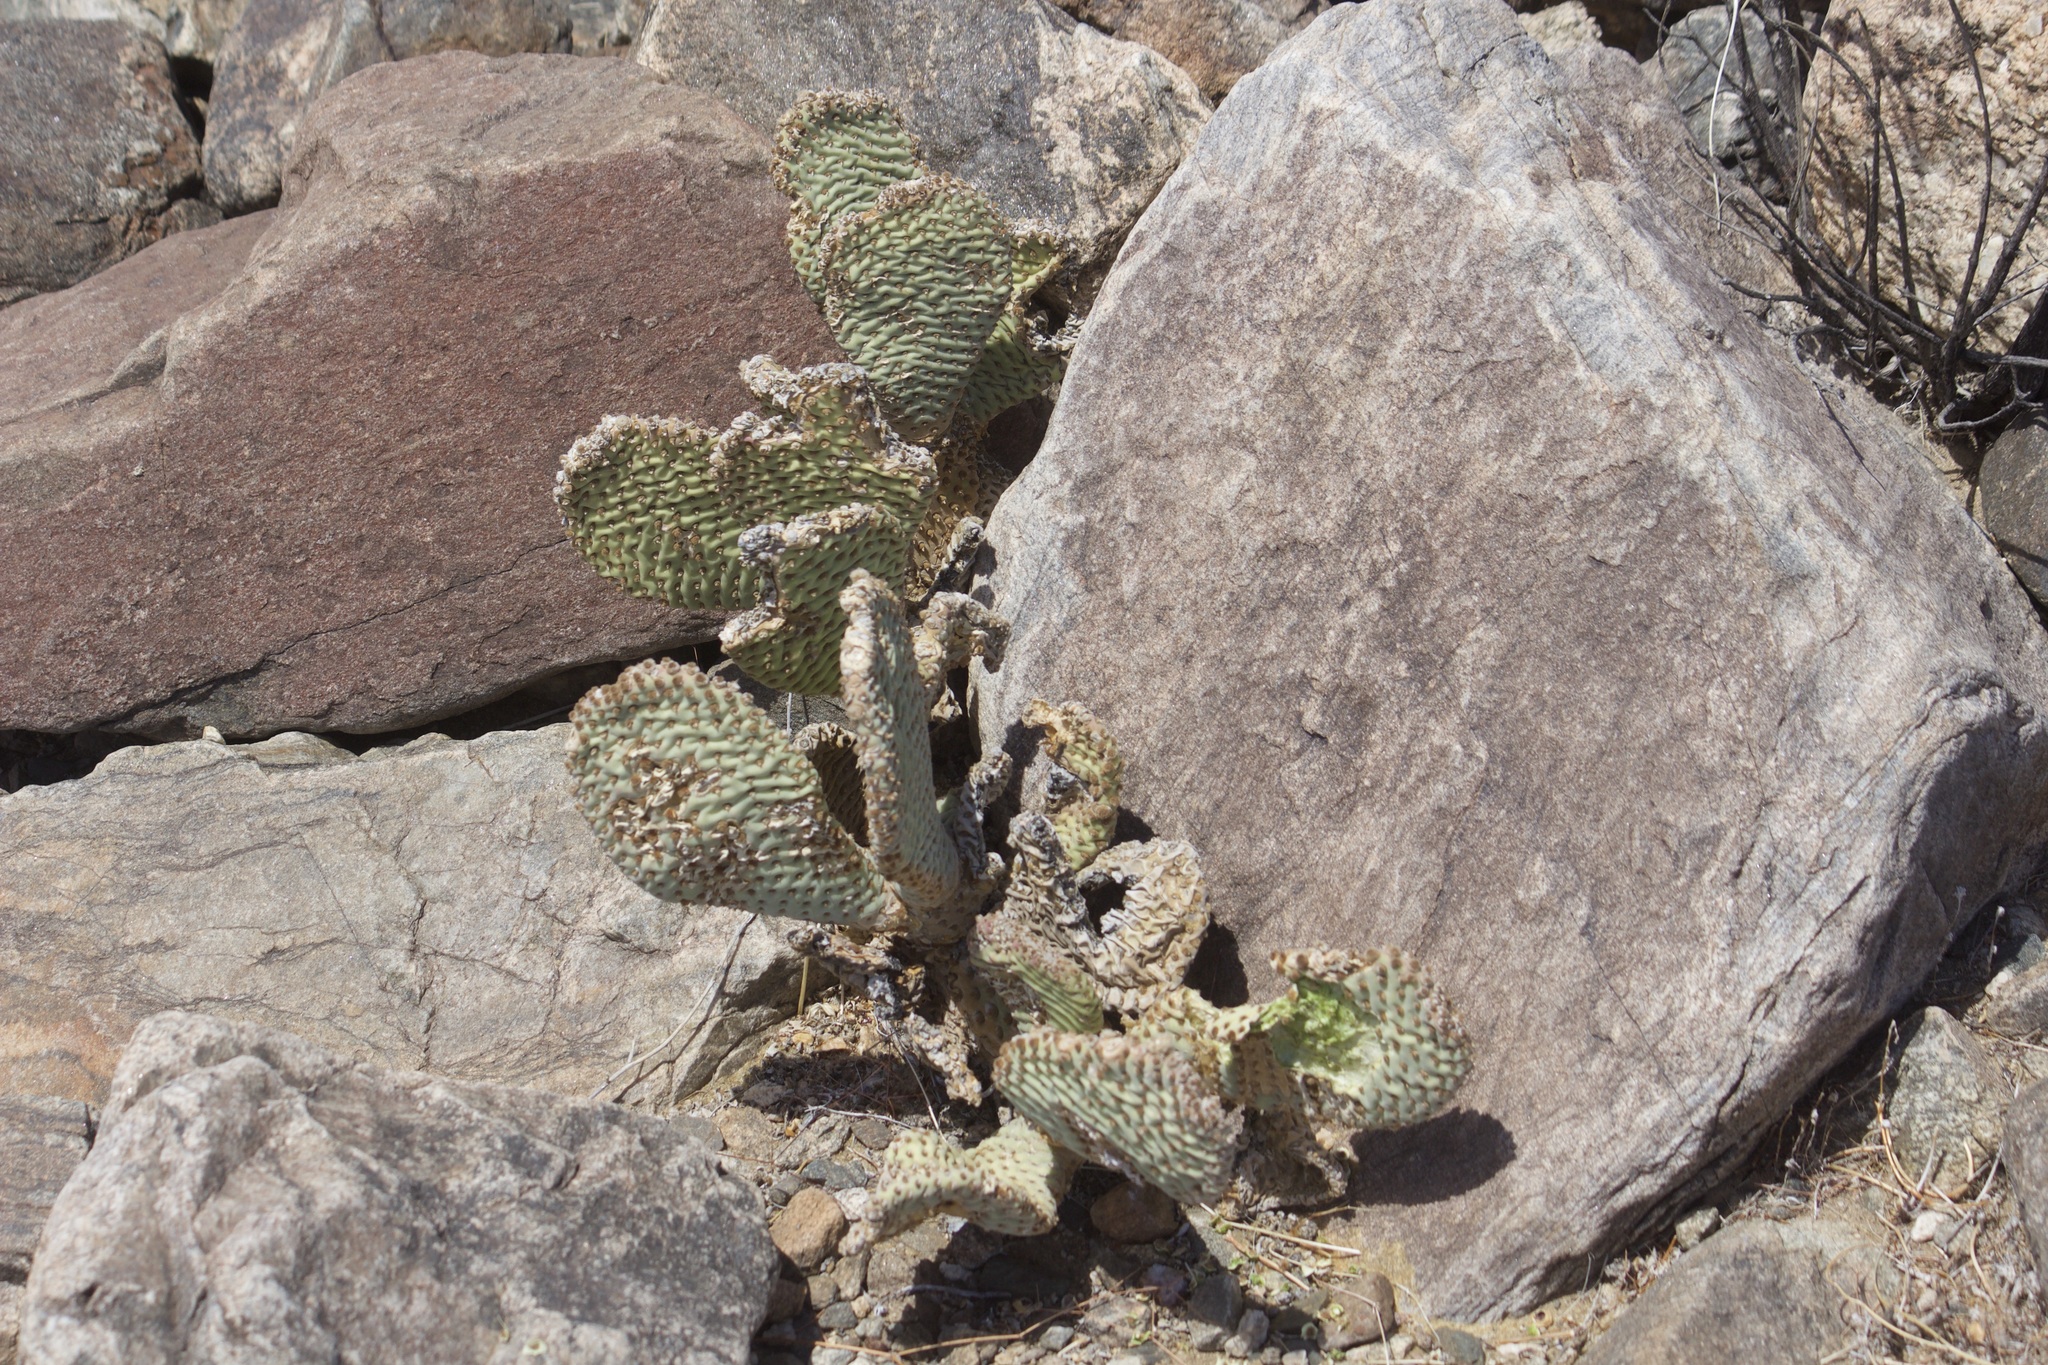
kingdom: Plantae
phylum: Tracheophyta
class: Magnoliopsida
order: Caryophyllales
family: Cactaceae
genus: Opuntia
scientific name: Opuntia basilaris
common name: Beavertail prickly-pear
